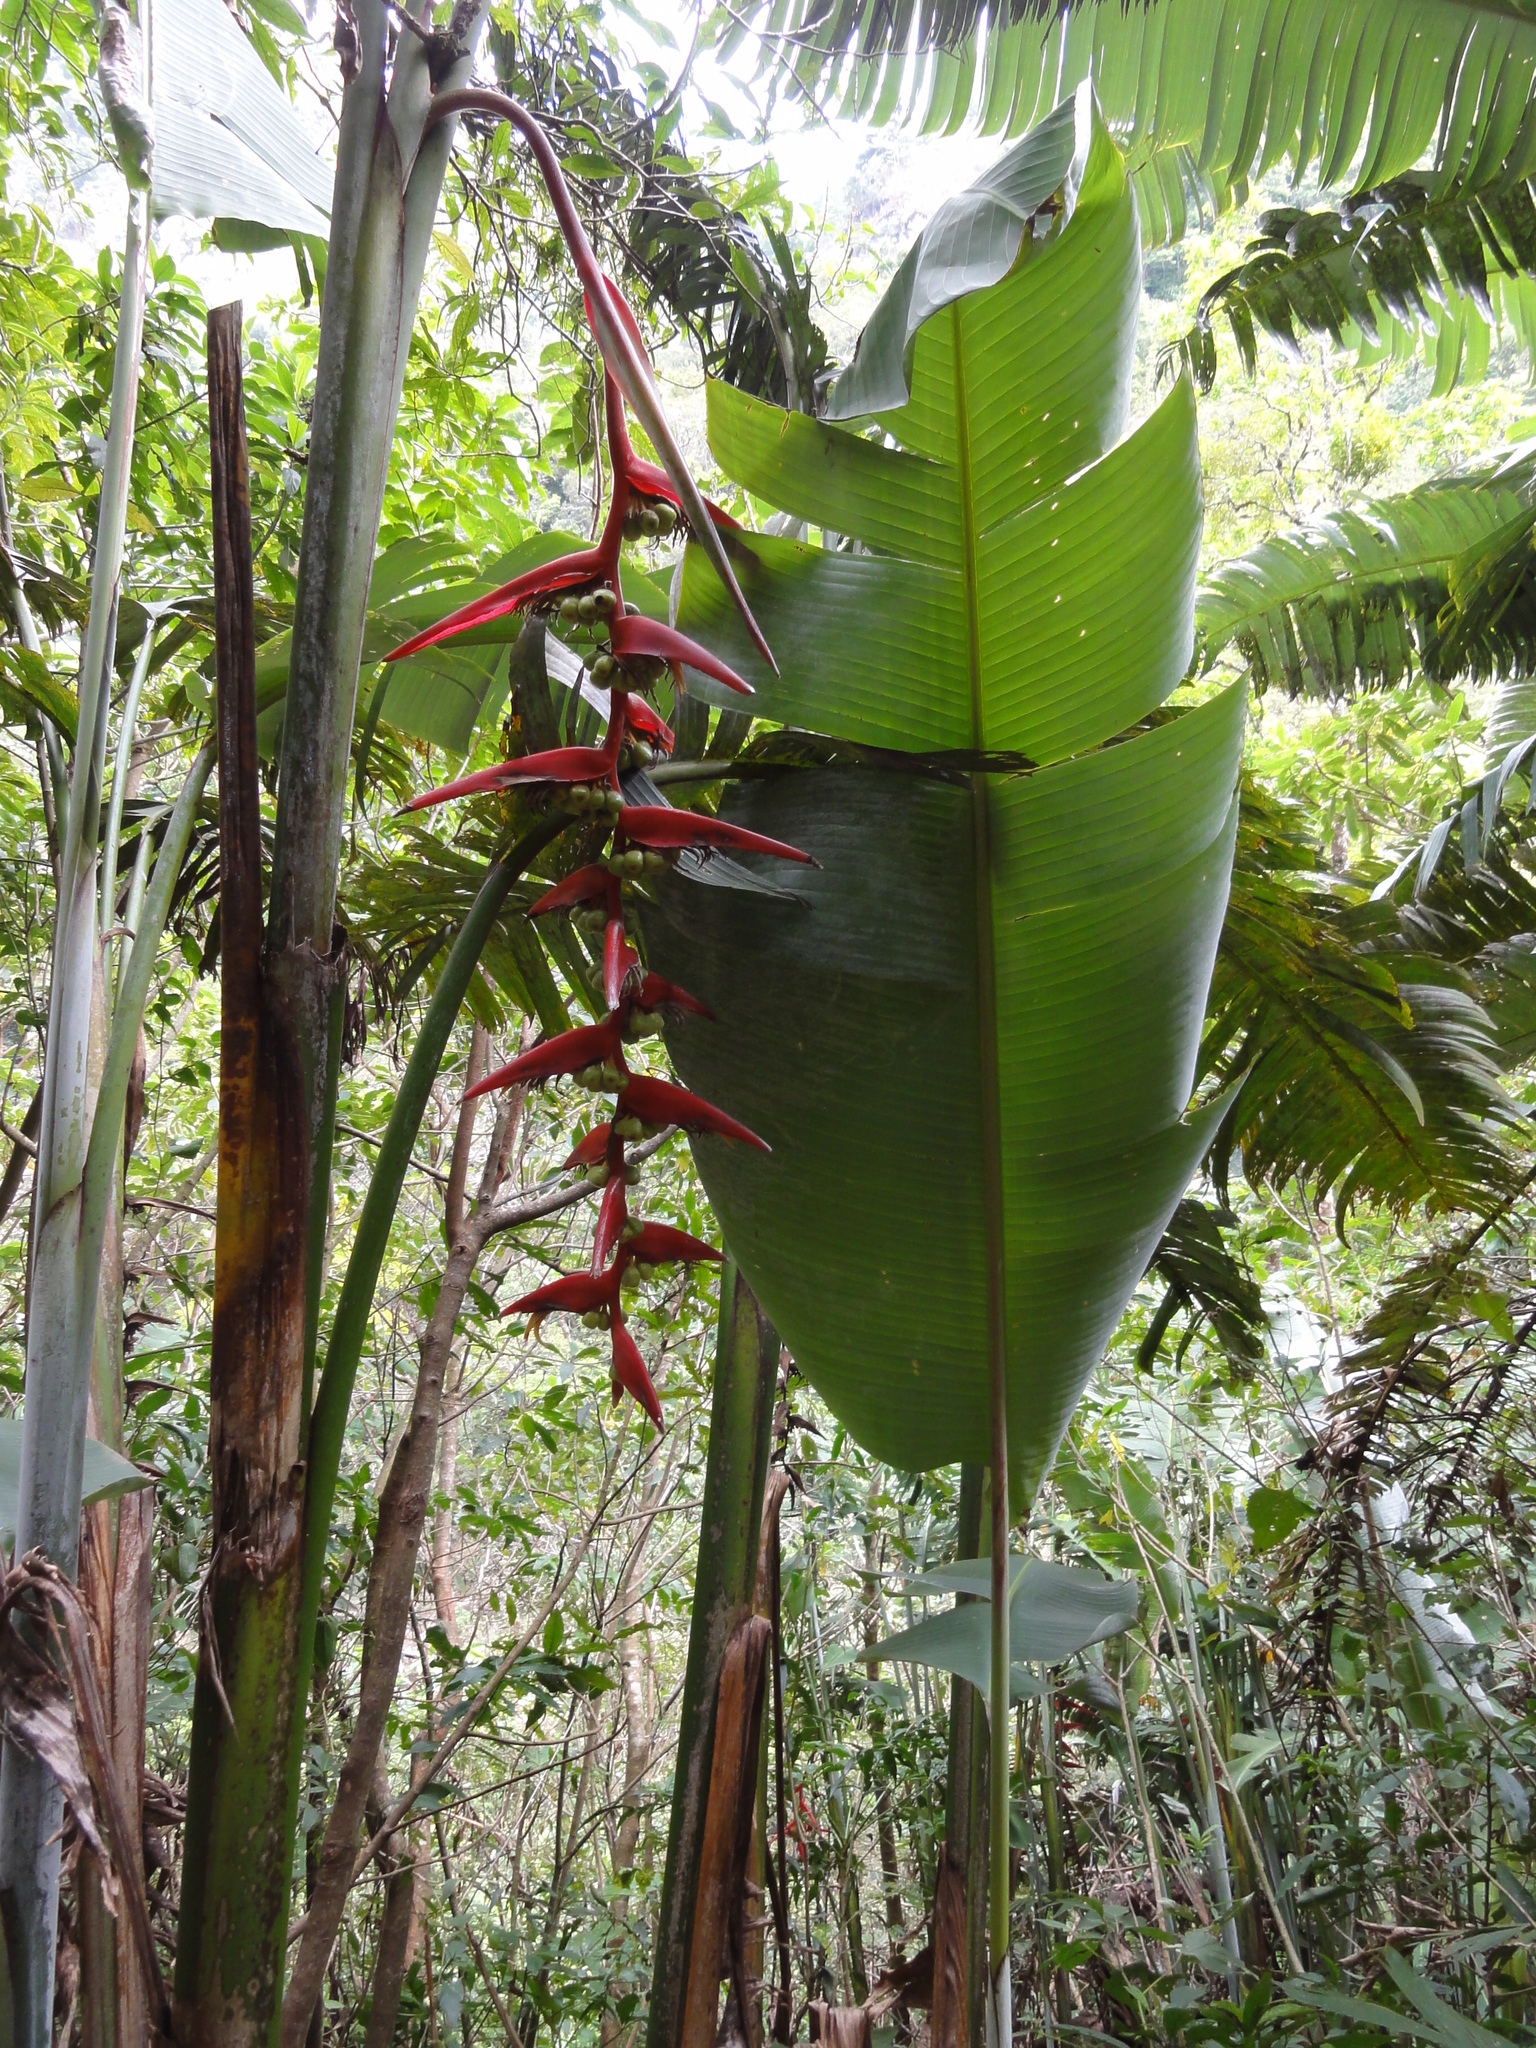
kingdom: Plantae
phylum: Tracheophyta
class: Liliopsida
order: Zingiberales
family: Heliconiaceae
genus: Heliconia
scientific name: Heliconia collinsiana
